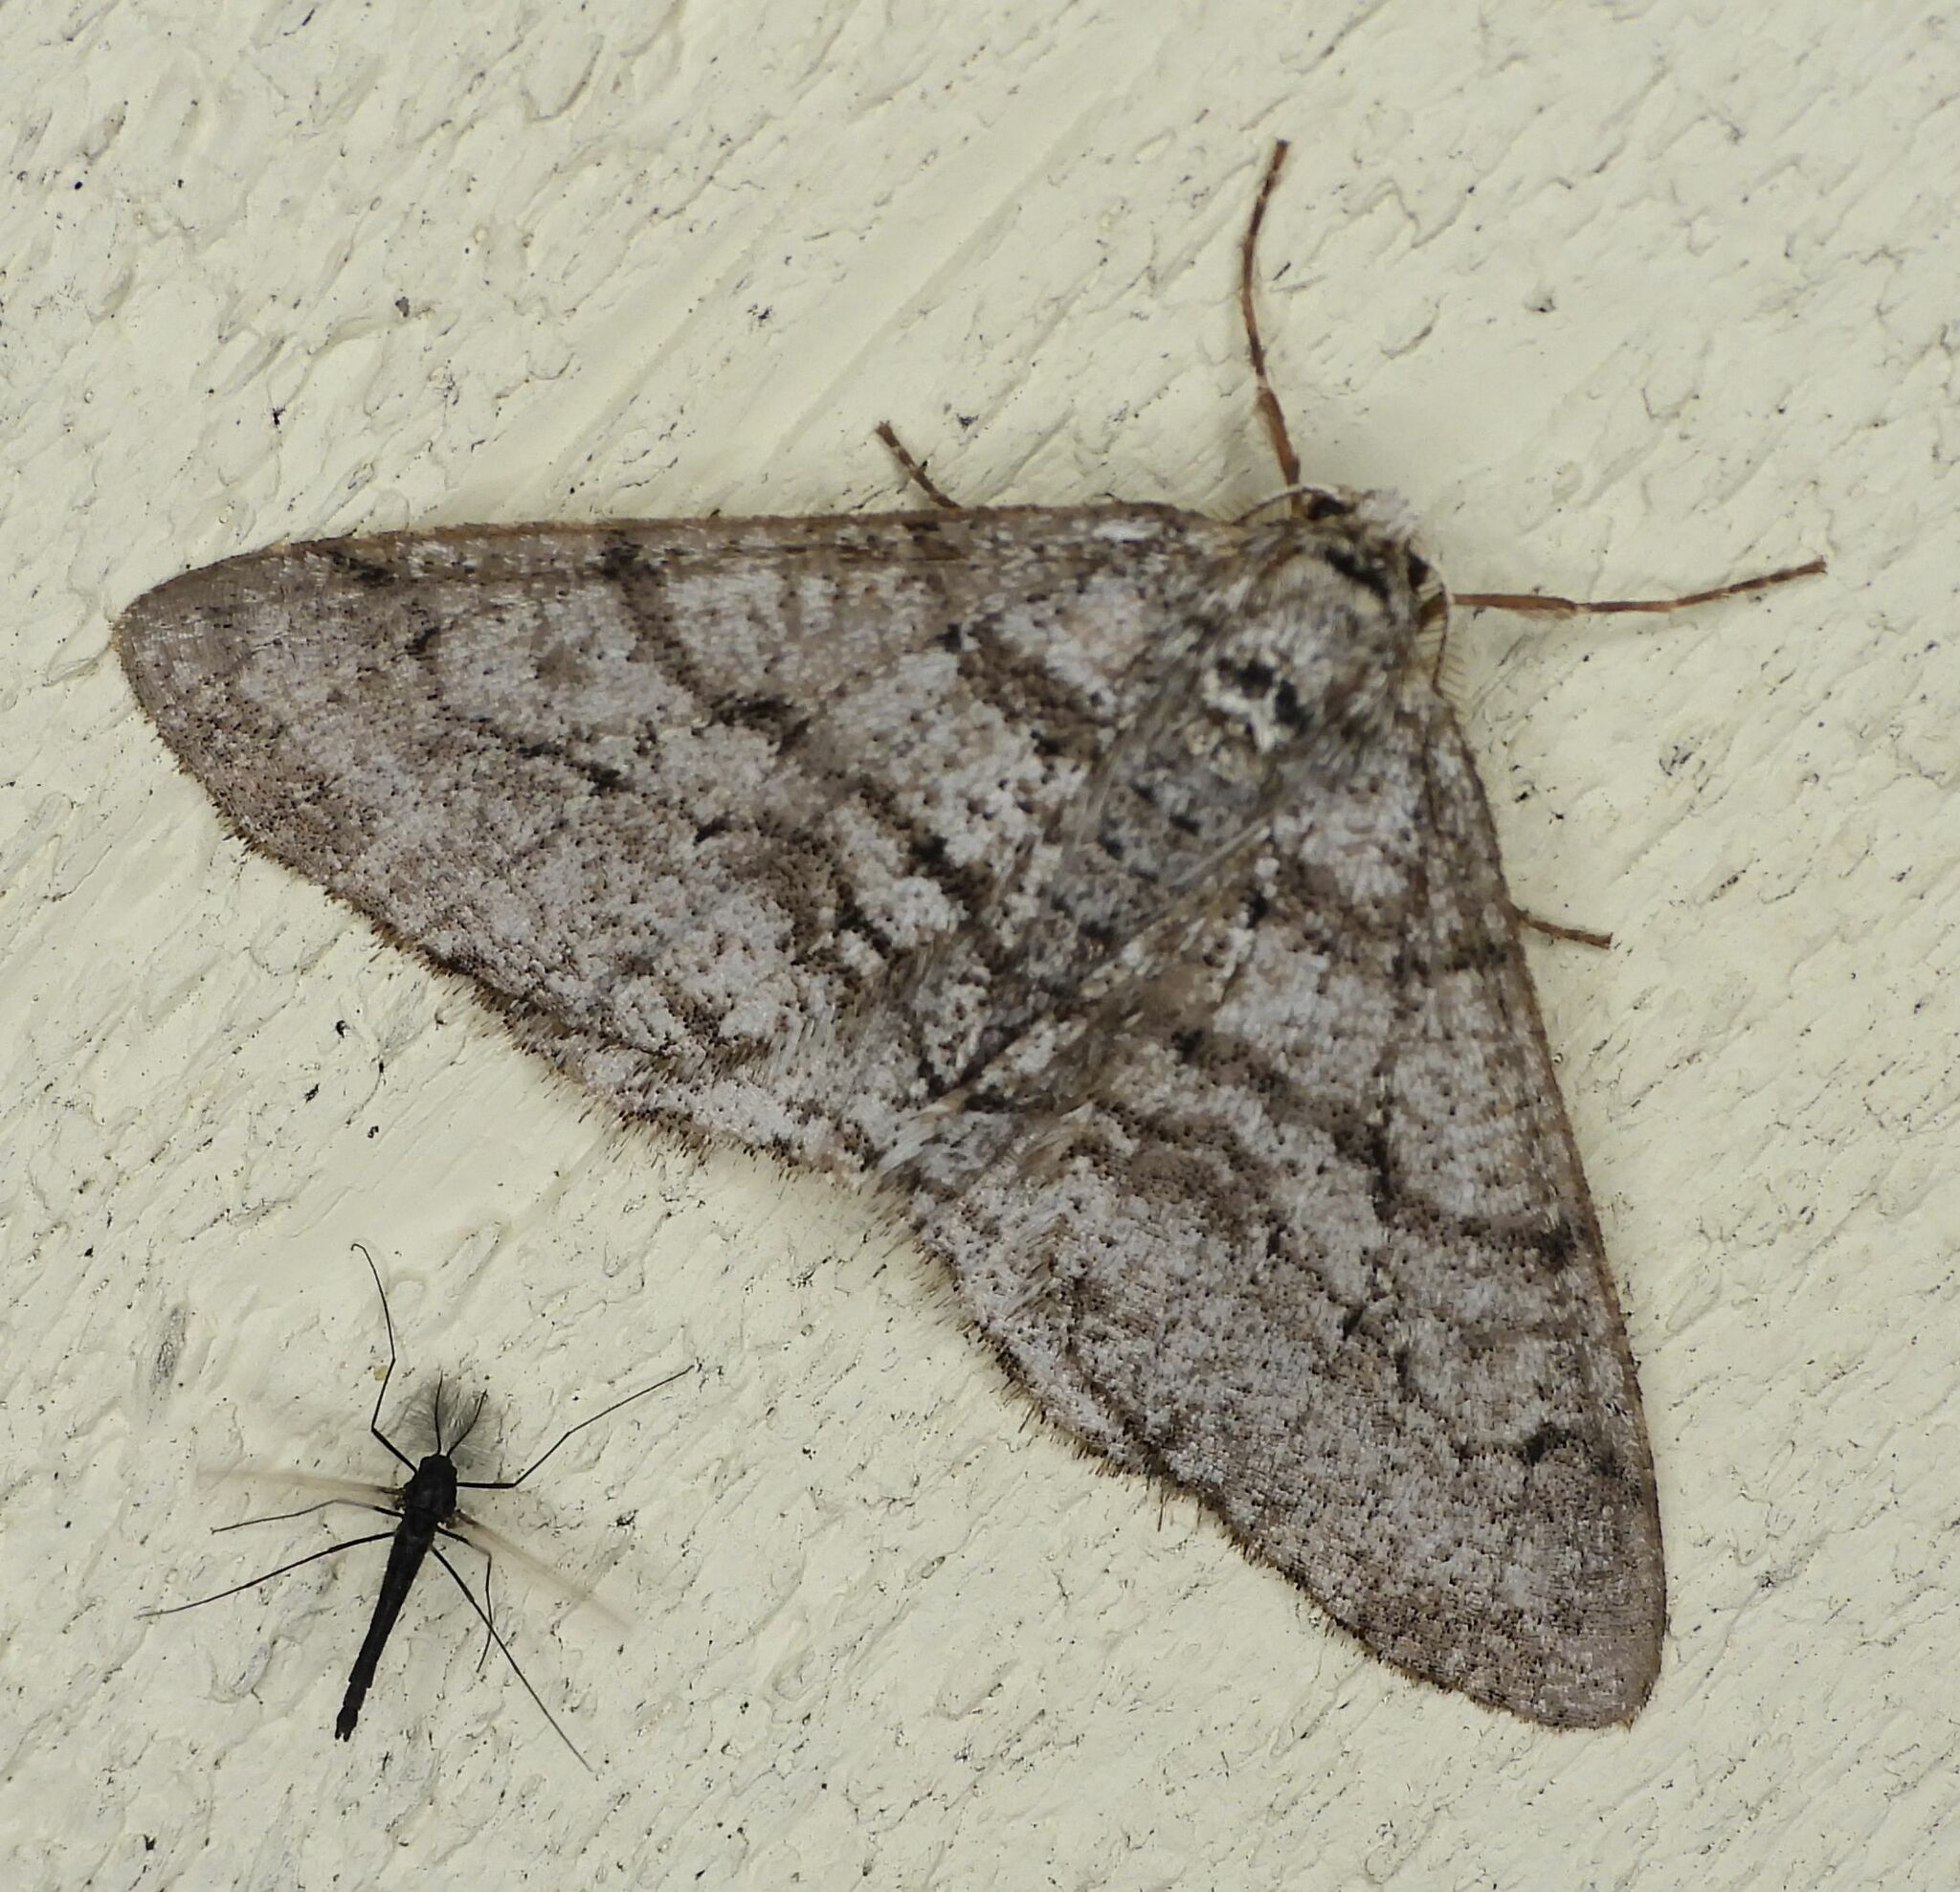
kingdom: Animalia
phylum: Arthropoda
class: Insecta
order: Lepidoptera
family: Geometridae
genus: Phigalia
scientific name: Phigalia titea
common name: Spiny looper
